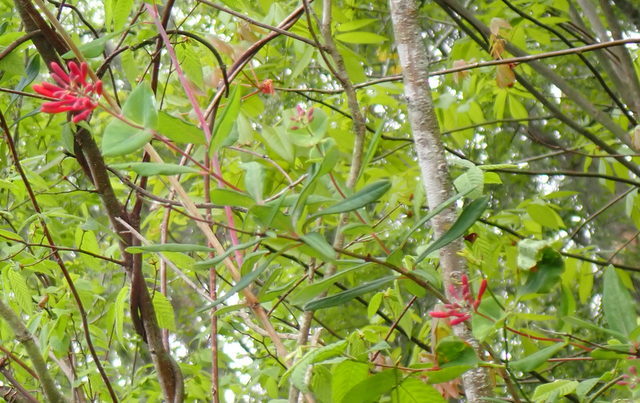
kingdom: Plantae
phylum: Tracheophyta
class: Magnoliopsida
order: Dipsacales
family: Caprifoliaceae
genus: Lonicera
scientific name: Lonicera sempervirens
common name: Coral honeysuckle
